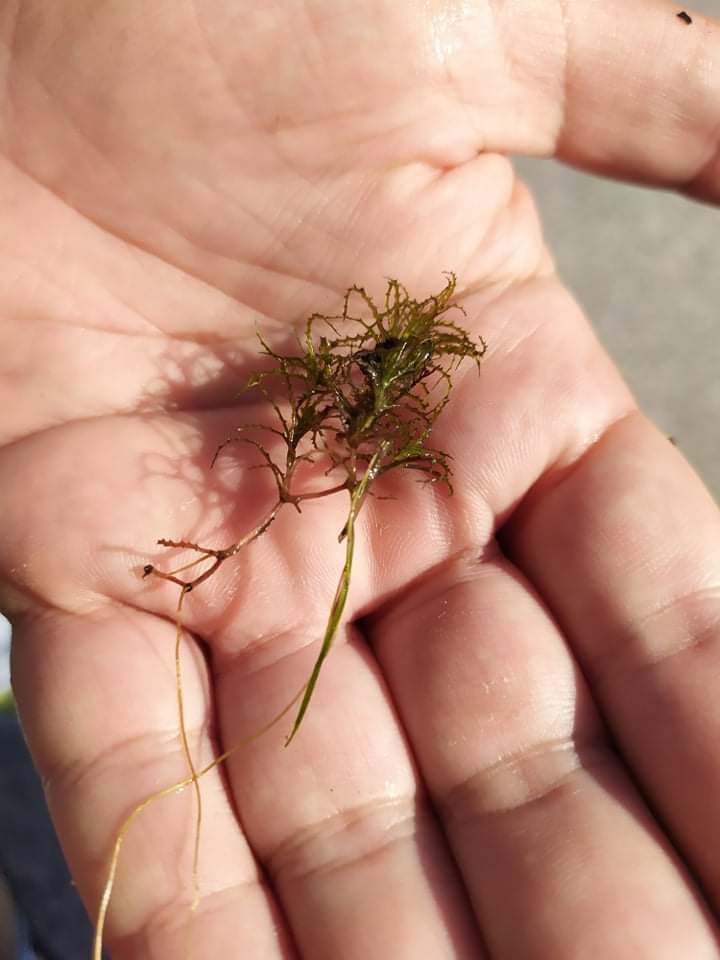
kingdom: Plantae
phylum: Tracheophyta
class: Liliopsida
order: Alismatales
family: Hydrocharitaceae
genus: Najas
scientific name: Najas minor
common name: Brittle naiad
